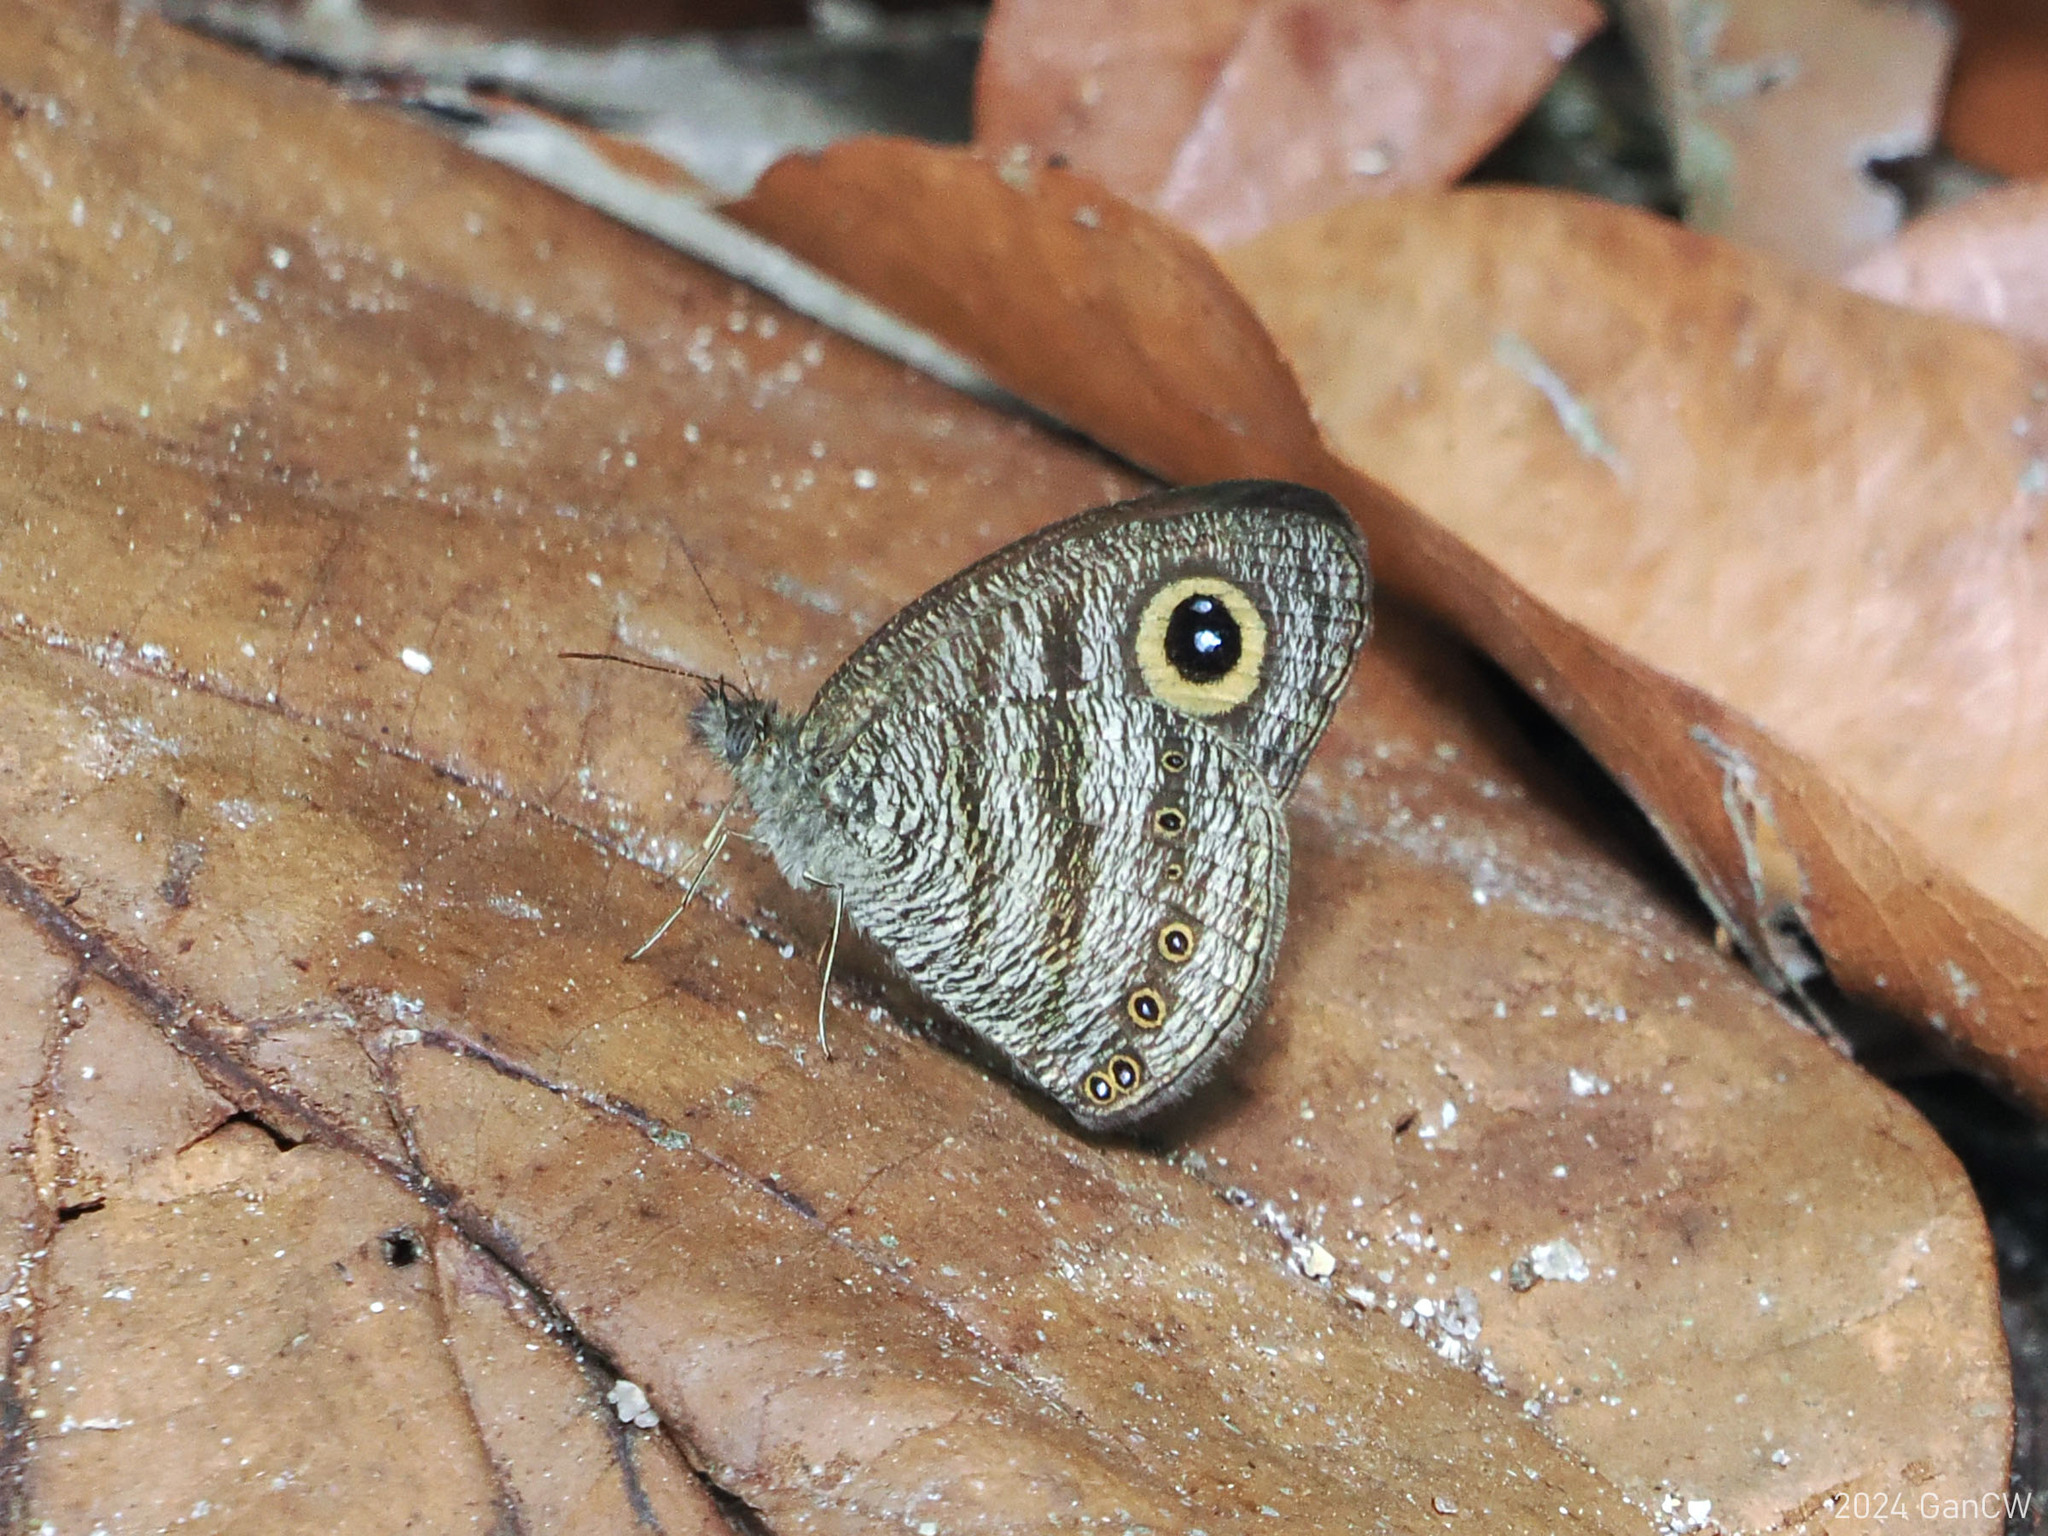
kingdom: Animalia
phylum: Arthropoda
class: Insecta
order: Lepidoptera
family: Nymphalidae
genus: Ypthima
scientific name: Ypthima fasciata
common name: Malayan six-ring
